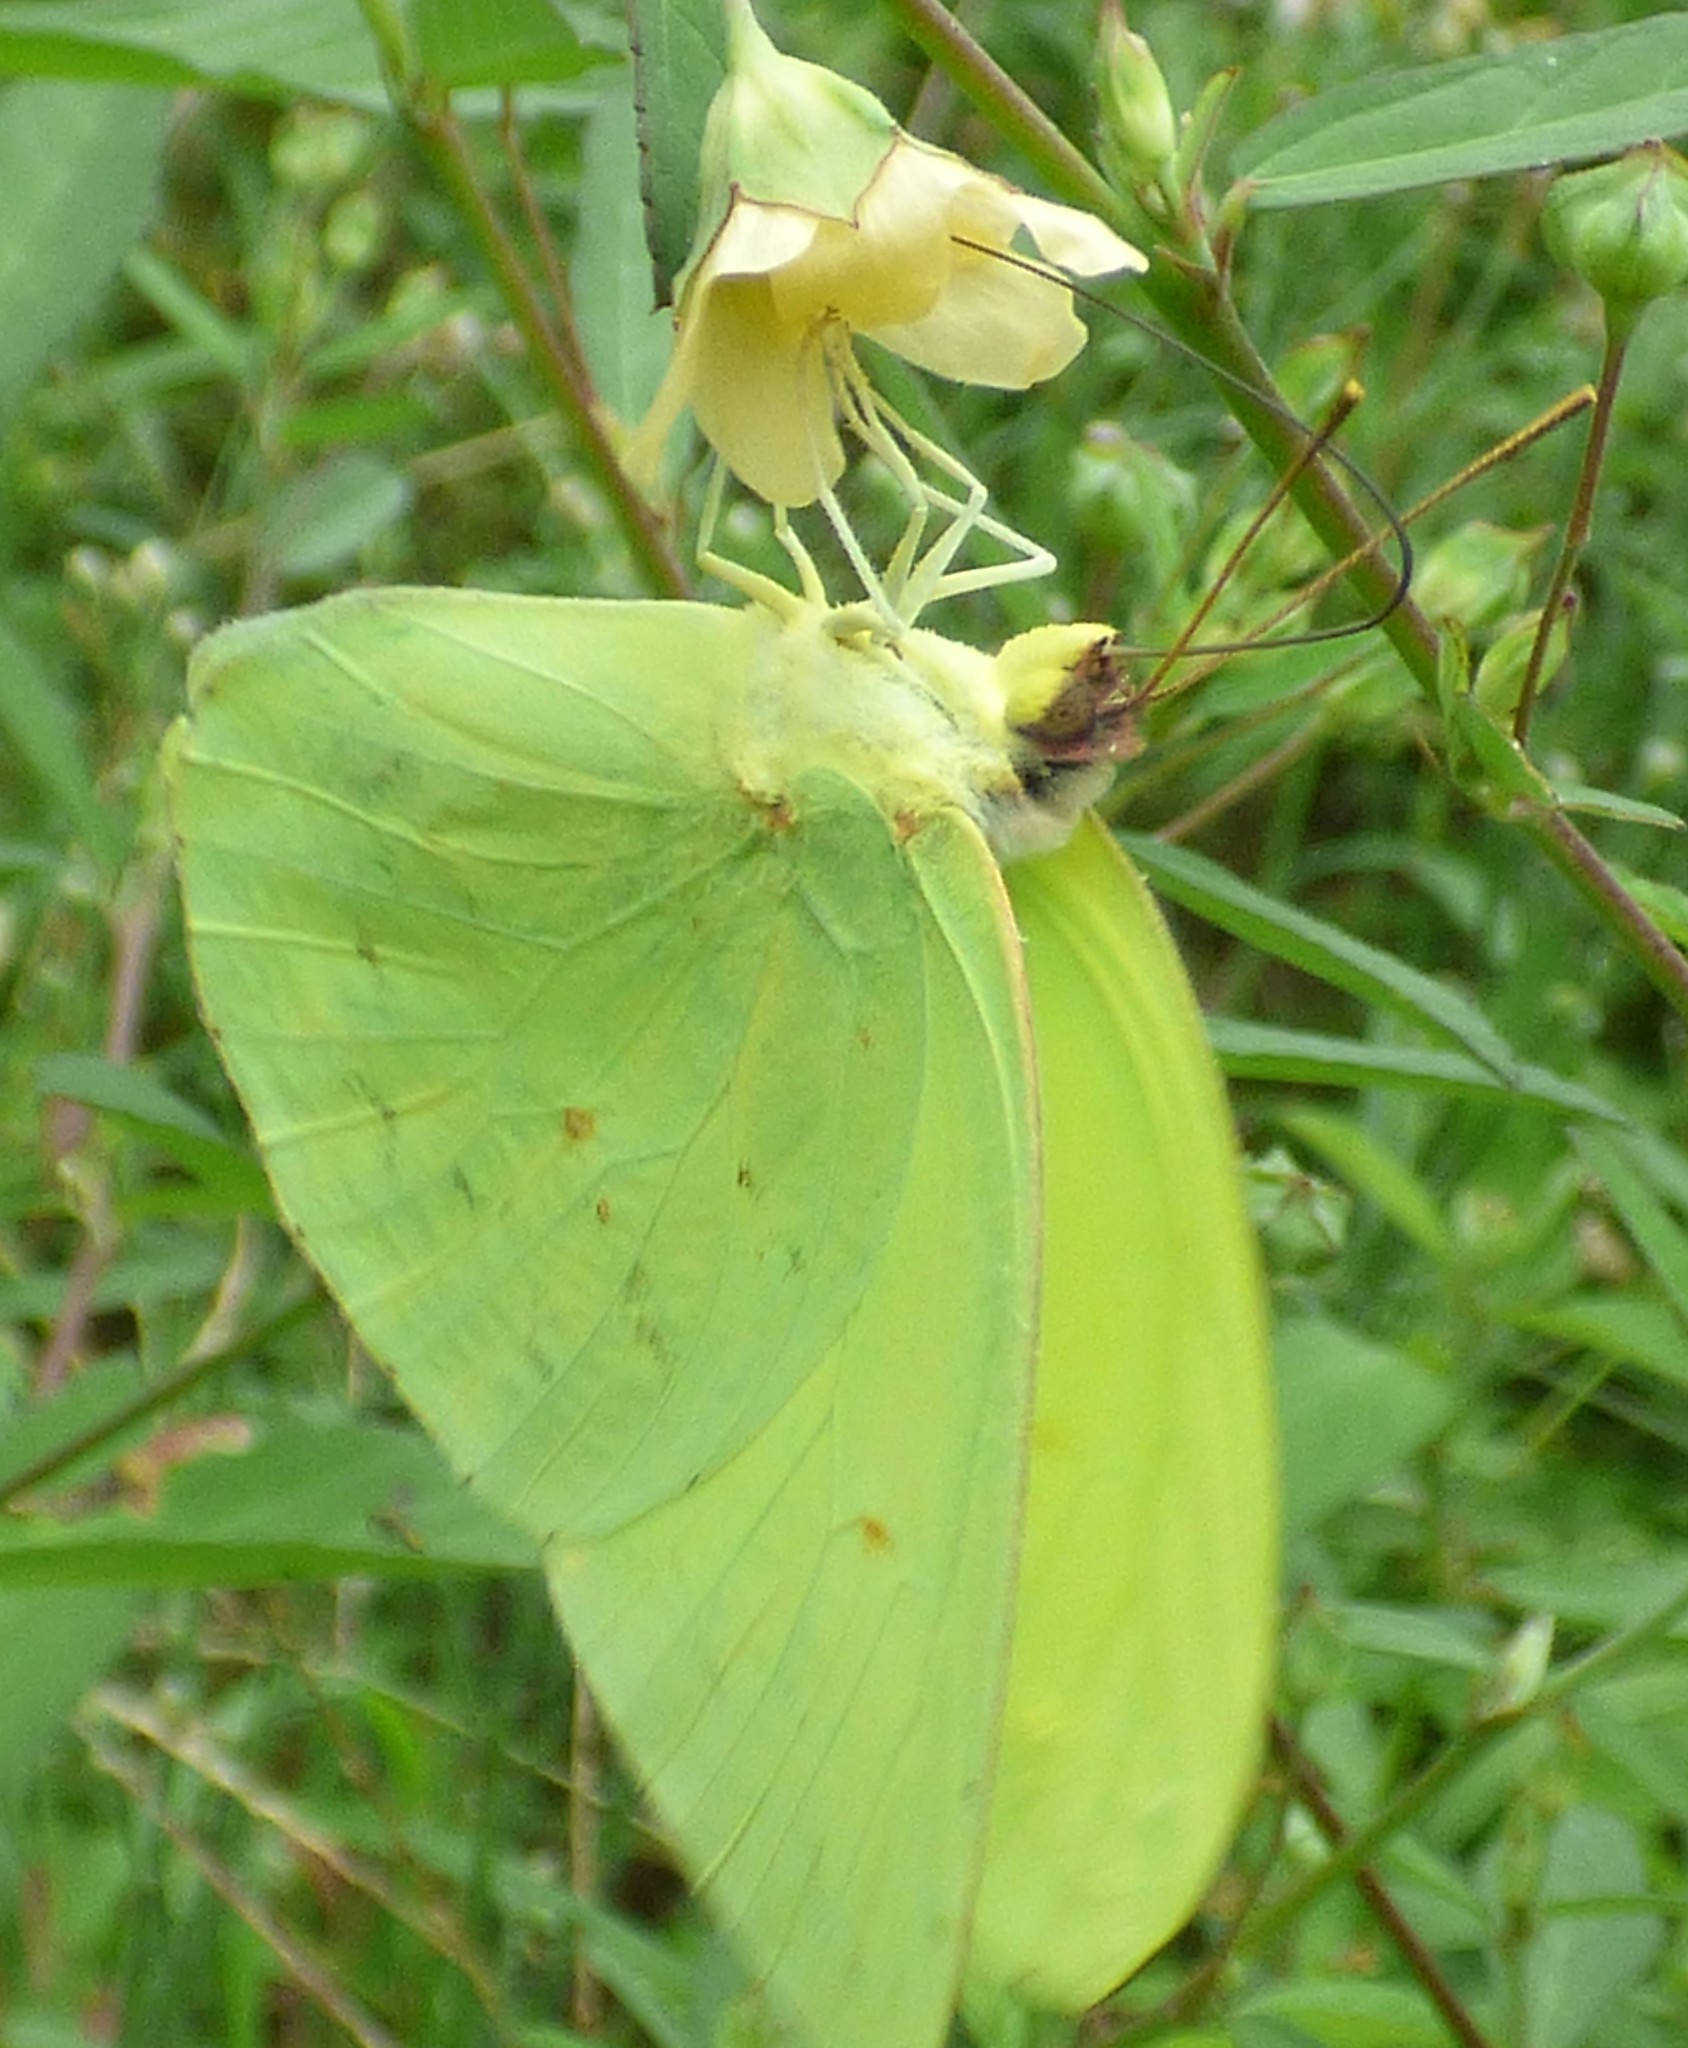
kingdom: Animalia
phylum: Arthropoda
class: Insecta
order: Lepidoptera
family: Pieridae
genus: Phoebis
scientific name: Phoebis sennae
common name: Cloudless sulphur
